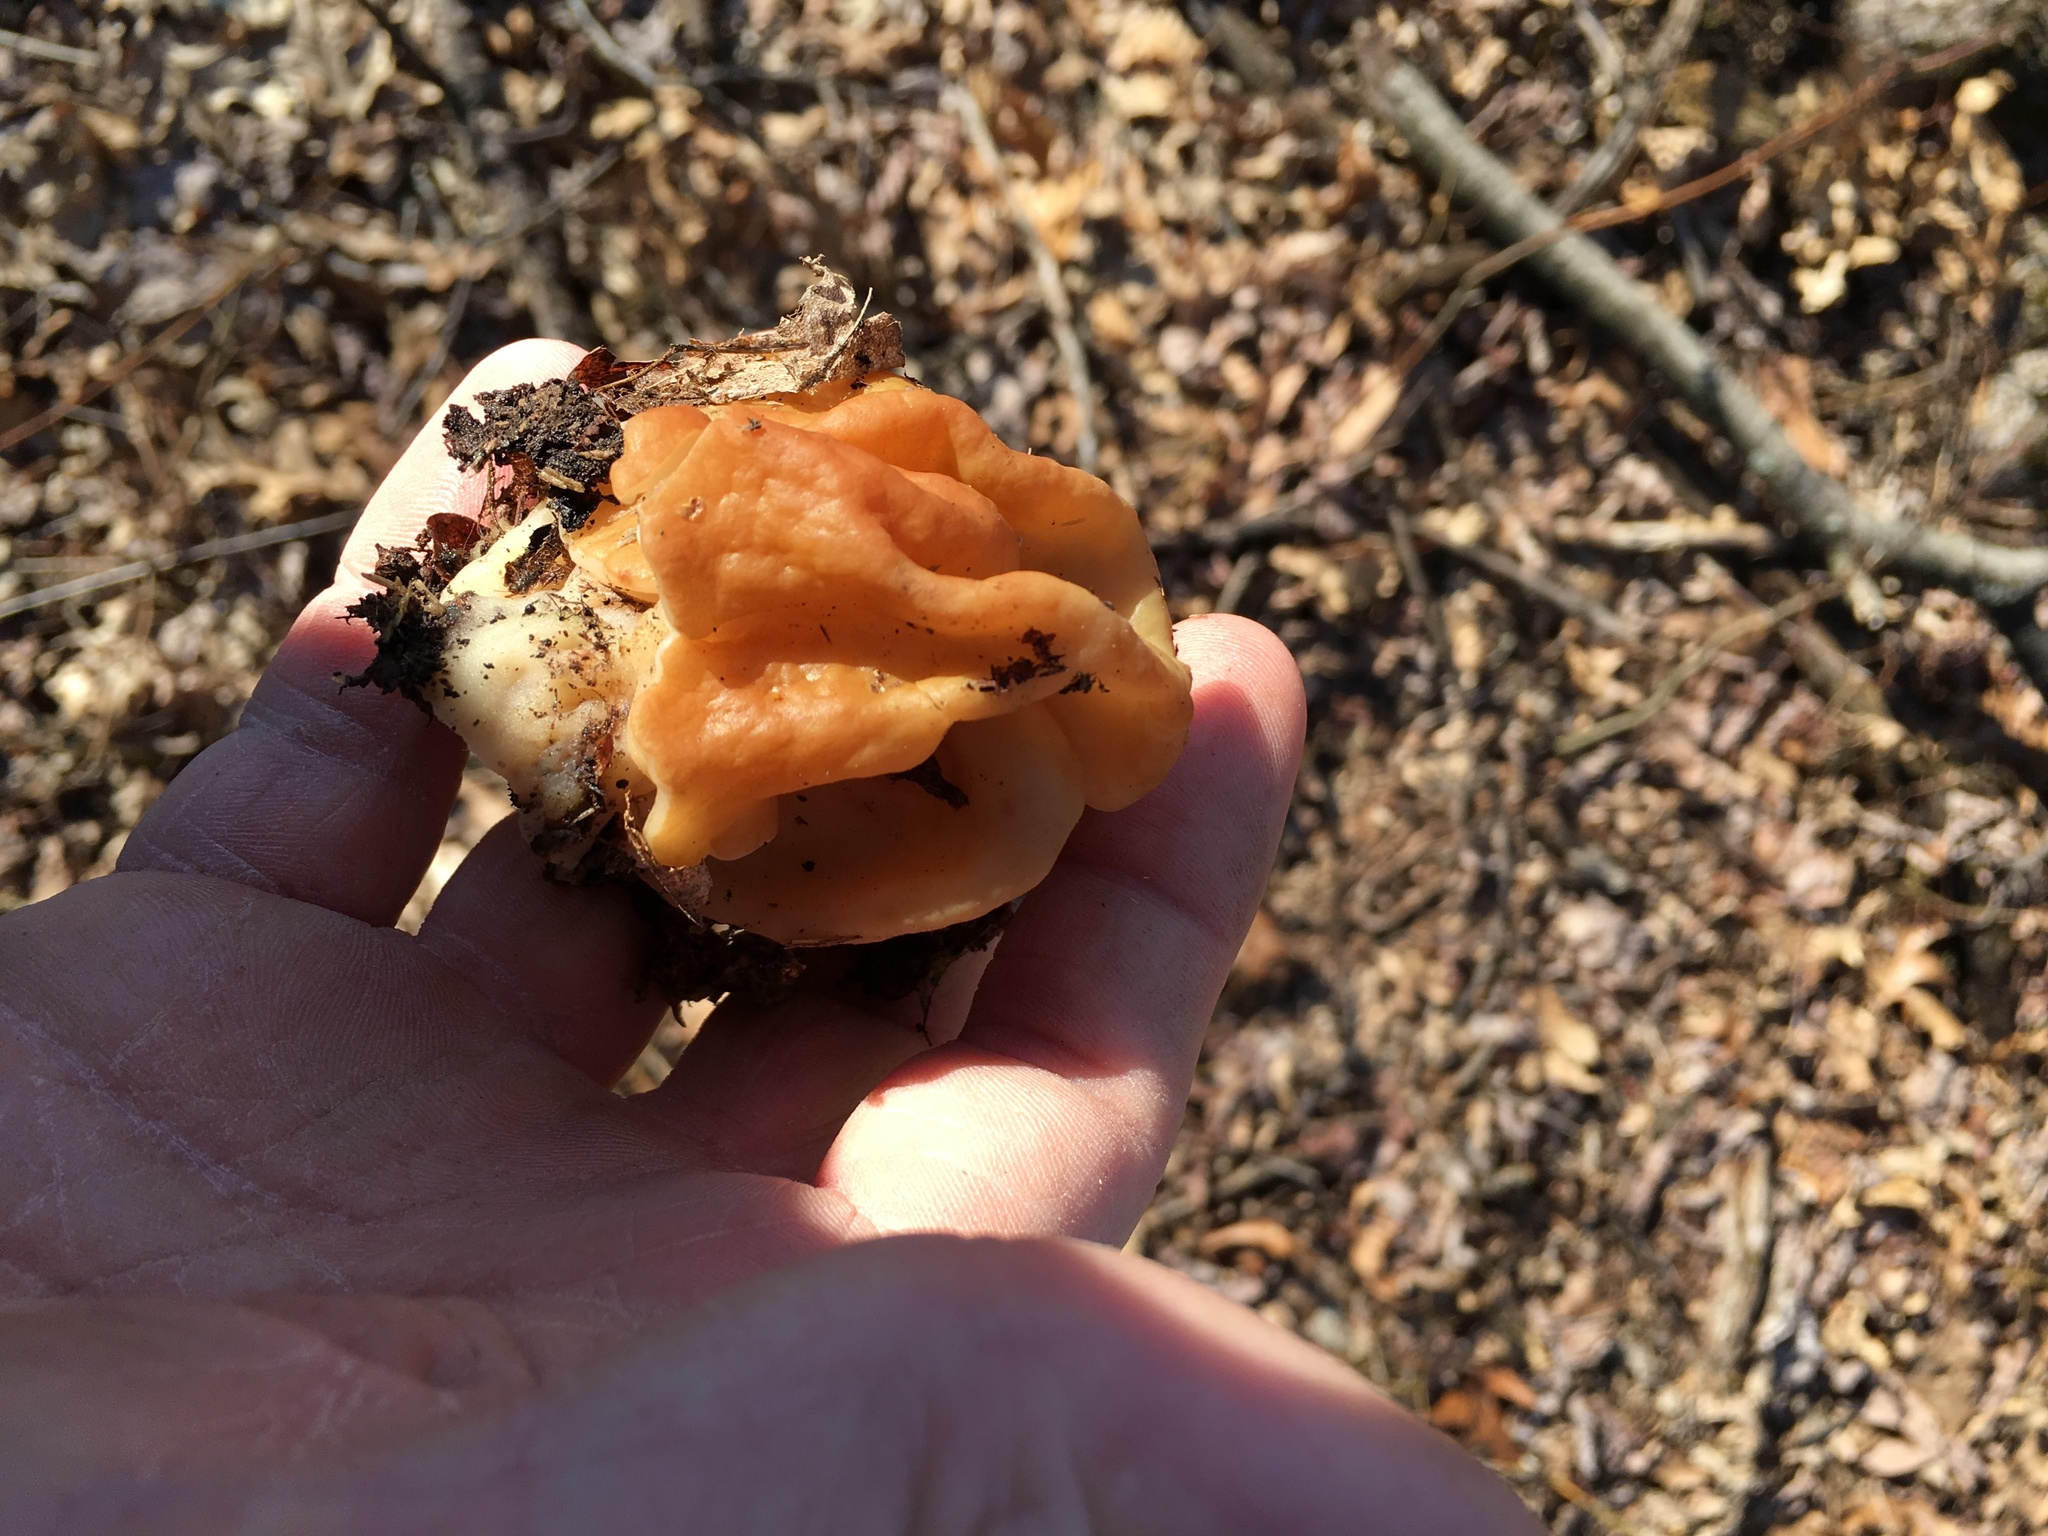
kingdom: Fungi
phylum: Ascomycota
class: Pezizomycetes
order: Pezizales
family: Discinaceae
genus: Gyromitra
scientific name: Gyromitra korfii
